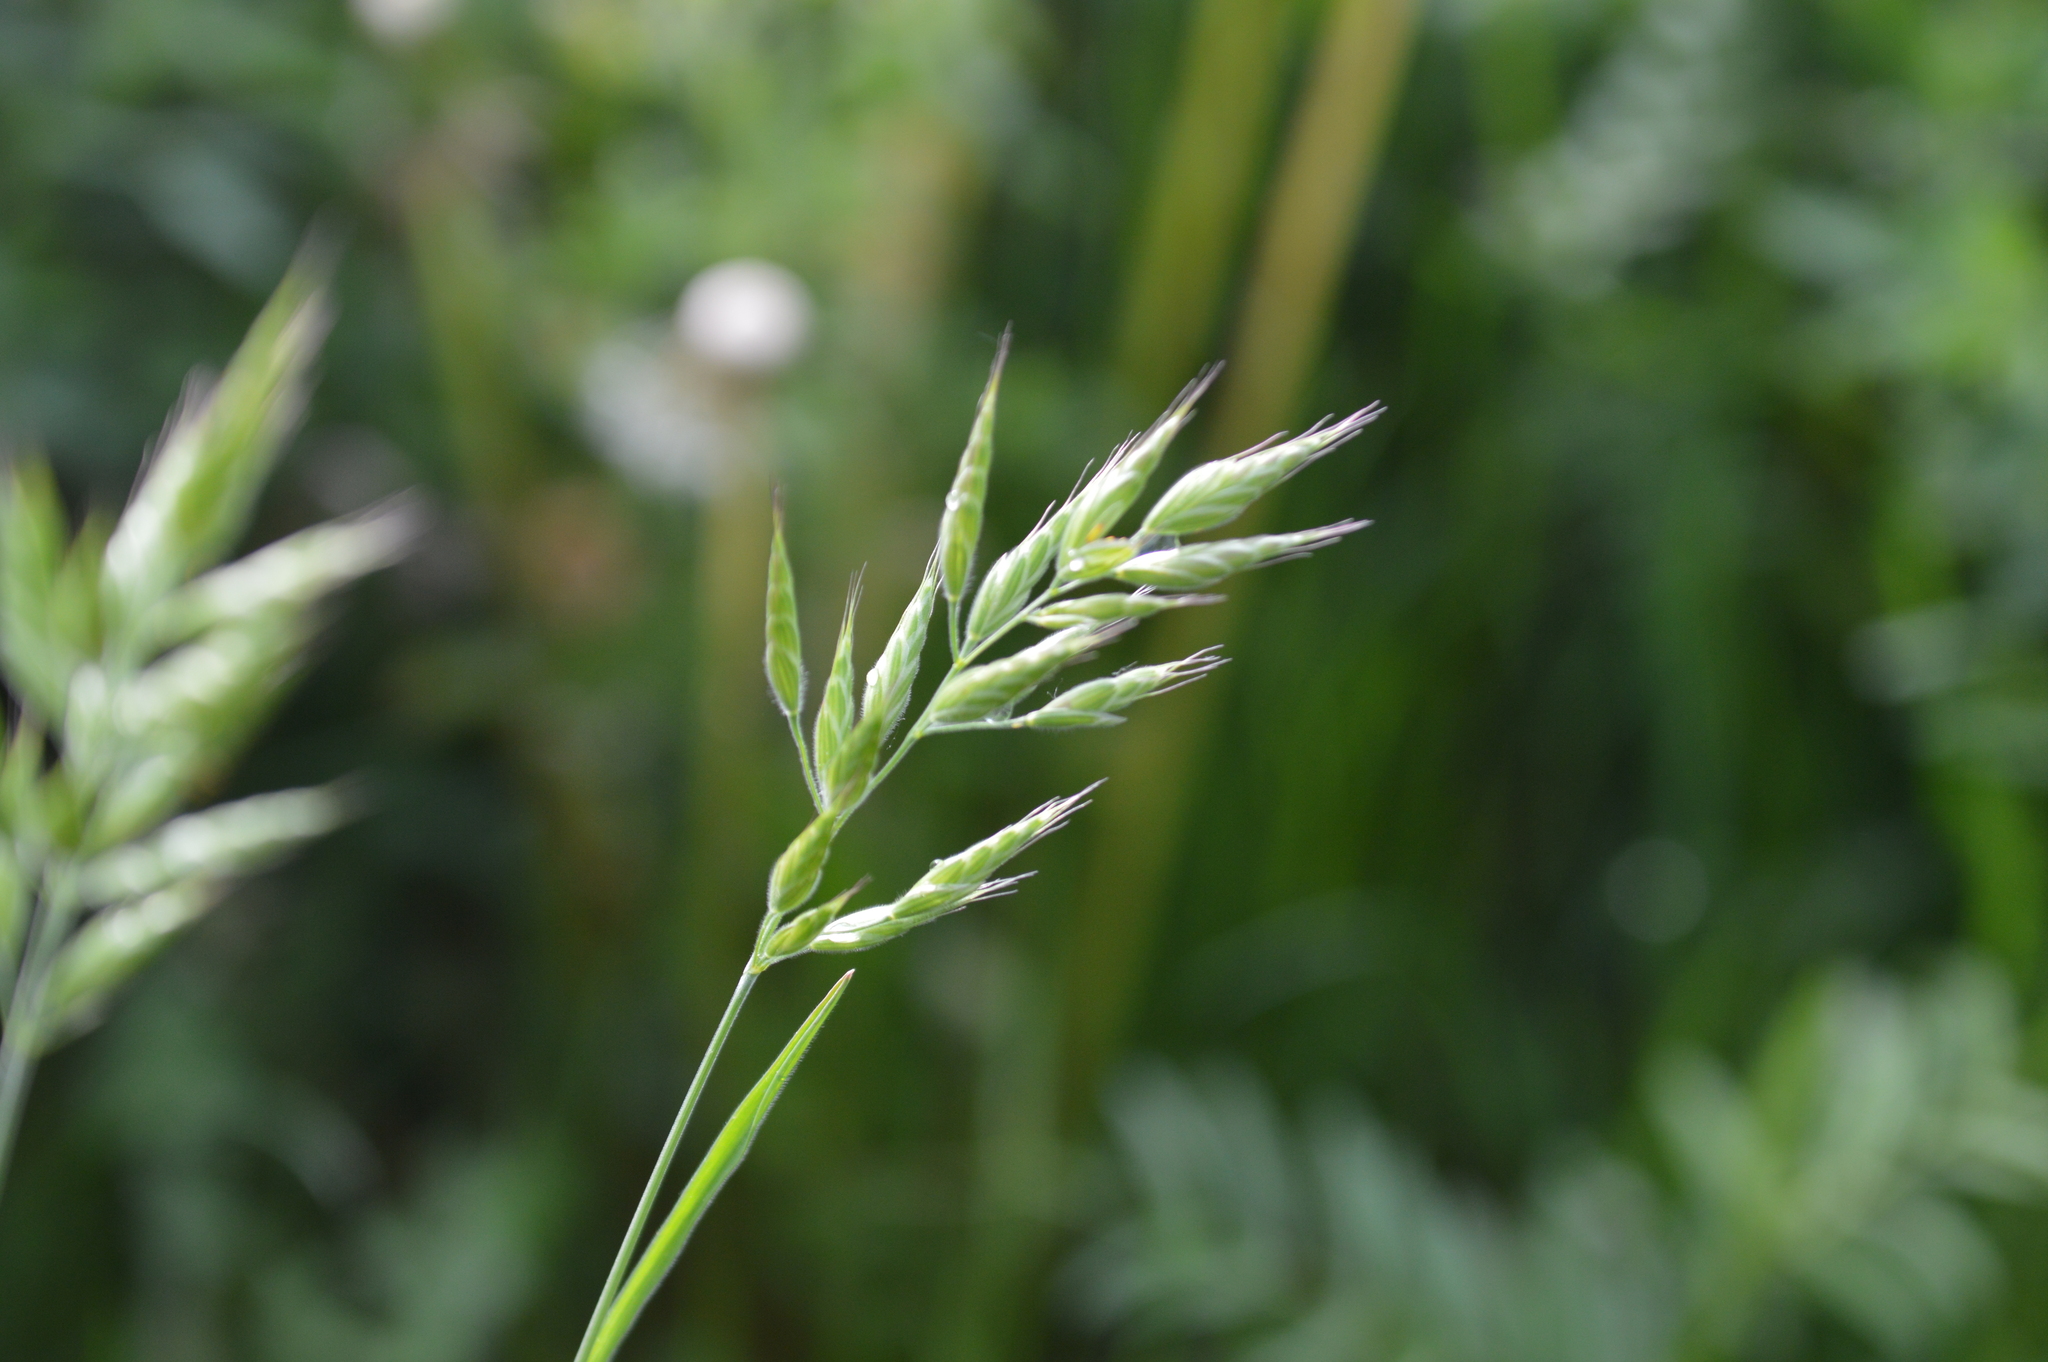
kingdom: Plantae
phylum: Tracheophyta
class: Liliopsida
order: Poales
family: Poaceae
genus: Bromus
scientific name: Bromus hordeaceus
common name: Soft brome
